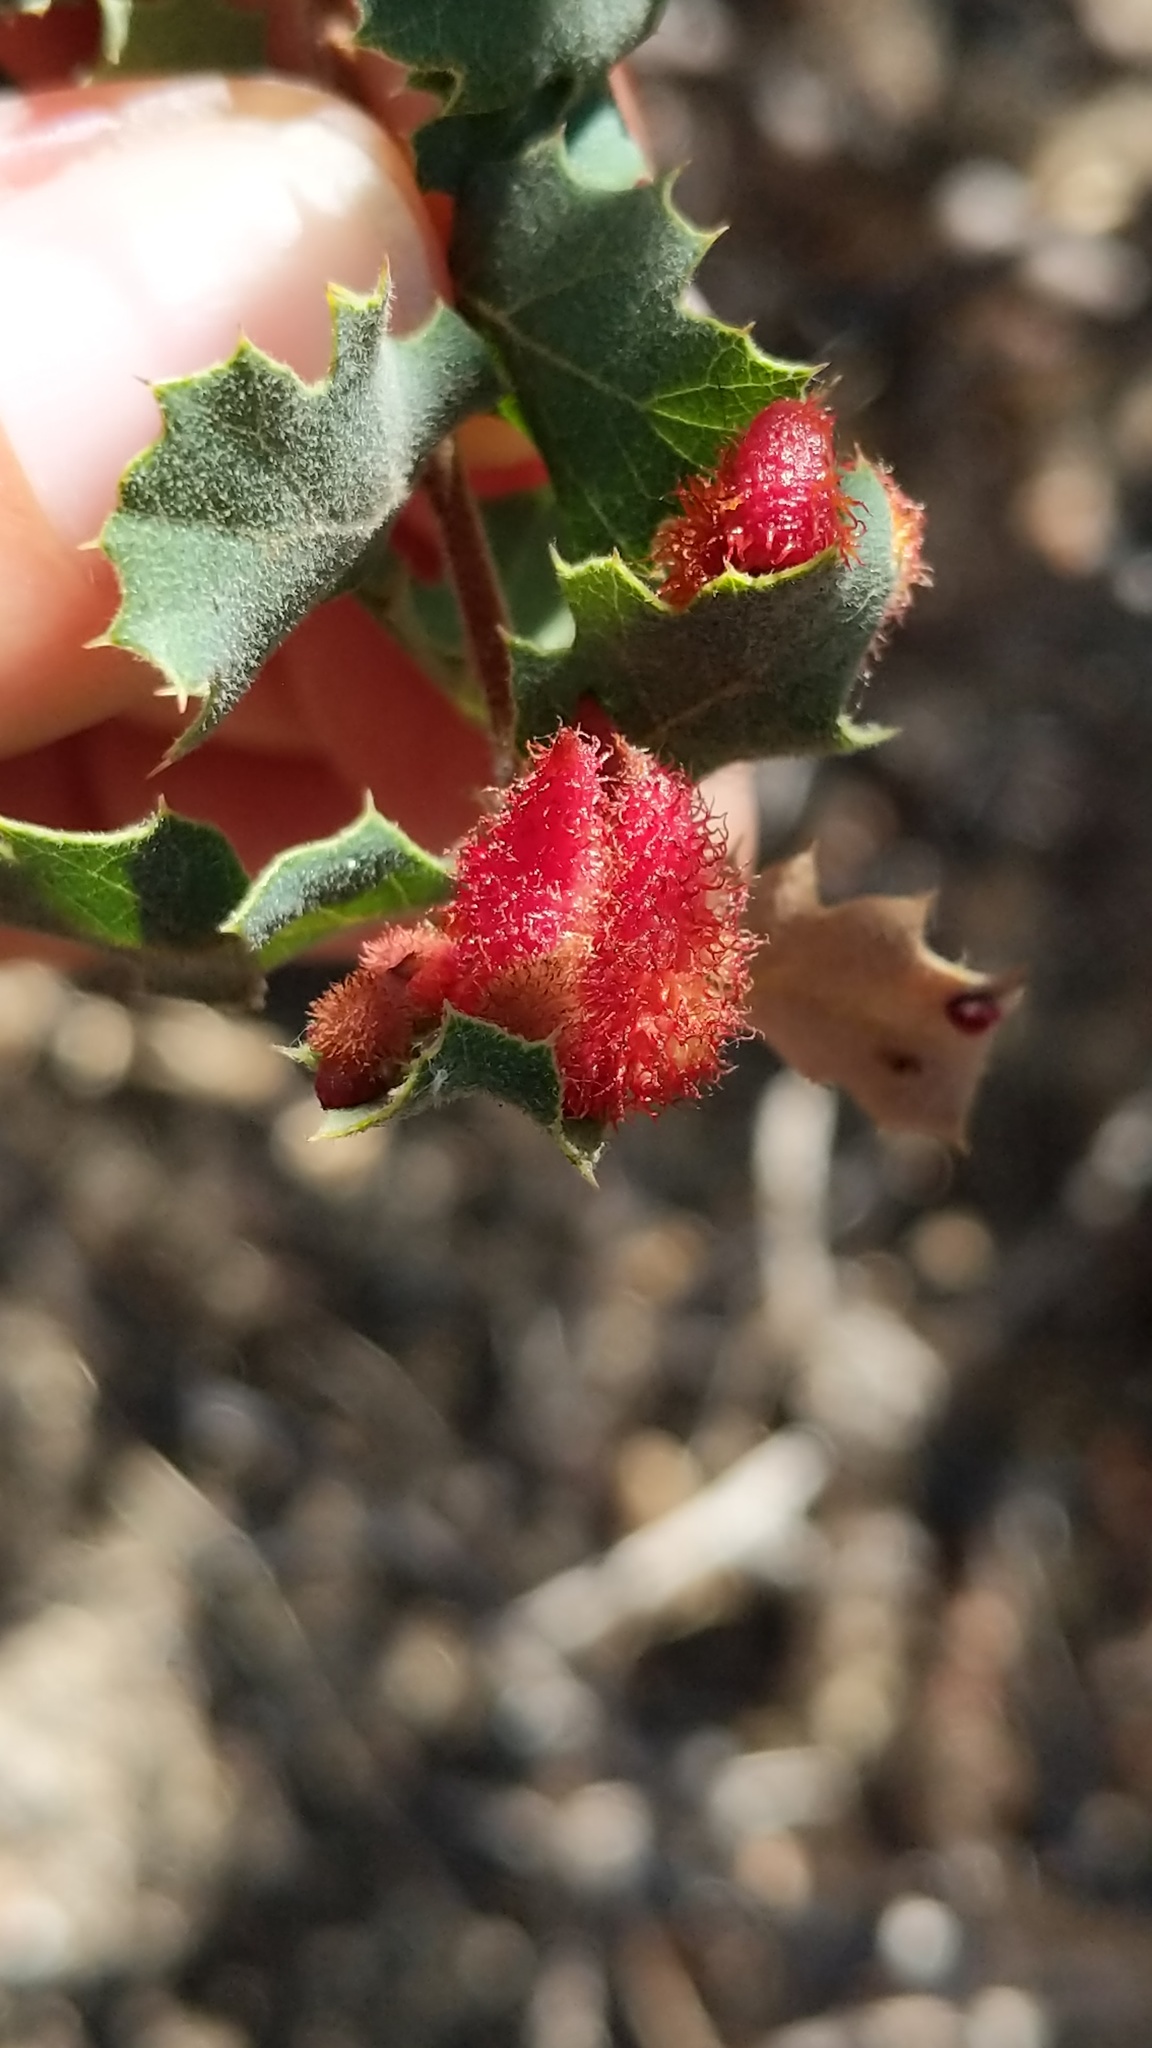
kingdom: Animalia
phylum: Arthropoda
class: Insecta
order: Hymenoptera
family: Cynipidae
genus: Andricus
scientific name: Andricus
